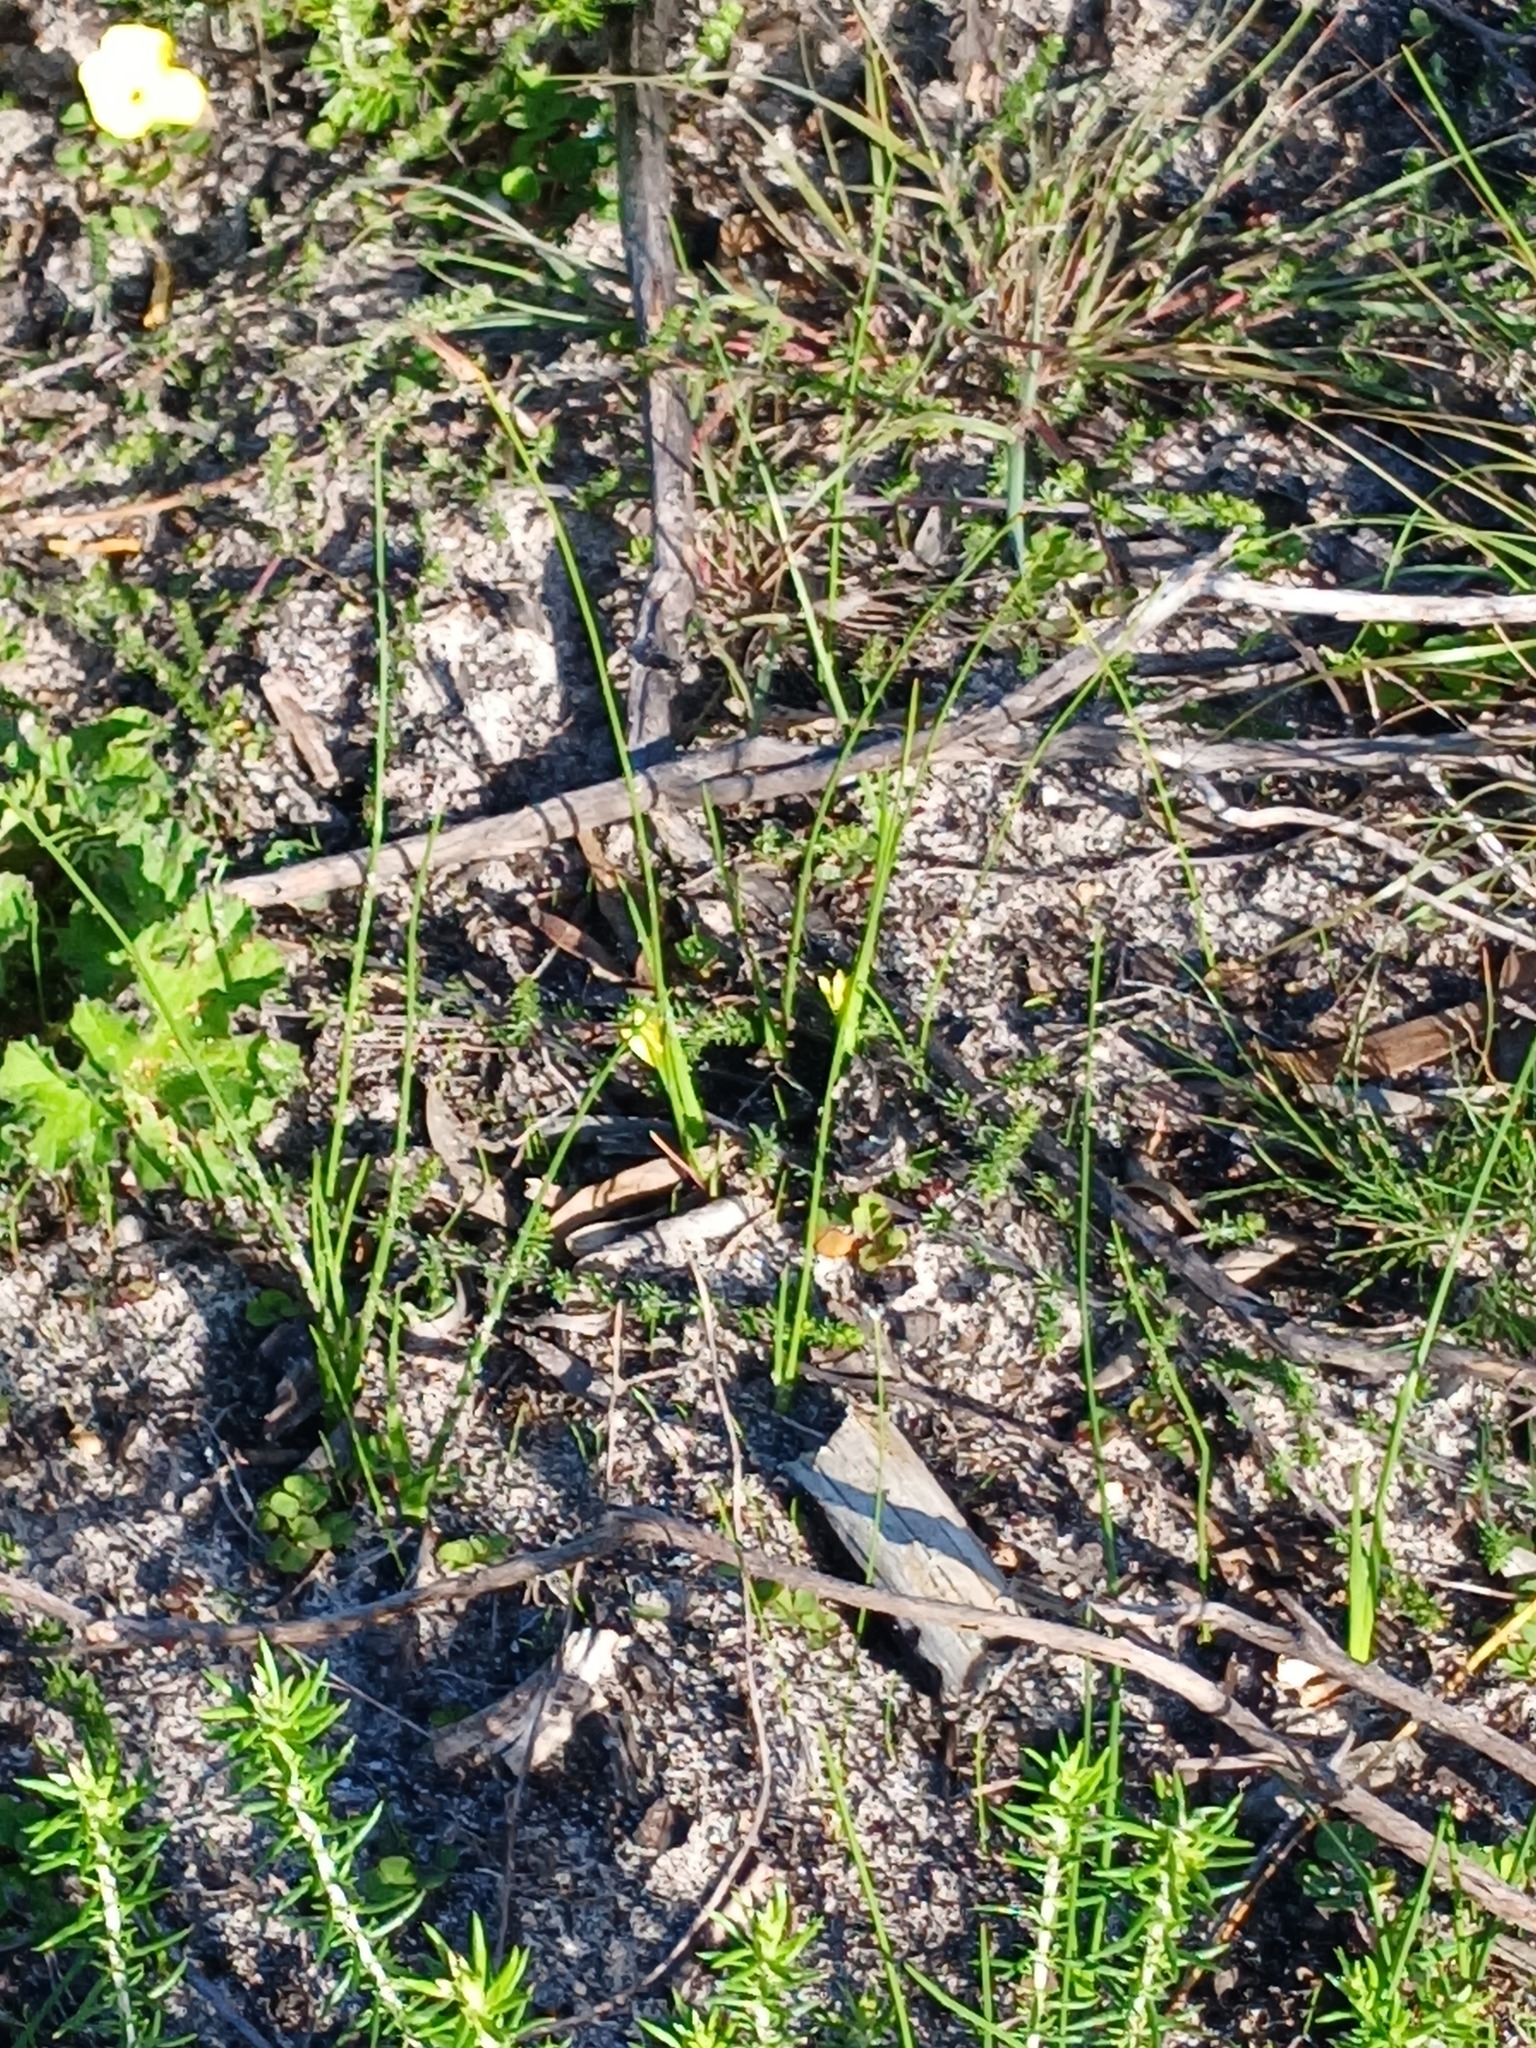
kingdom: Plantae
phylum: Tracheophyta
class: Liliopsida
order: Asparagales
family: Iridaceae
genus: Romulea
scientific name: Romulea flava
